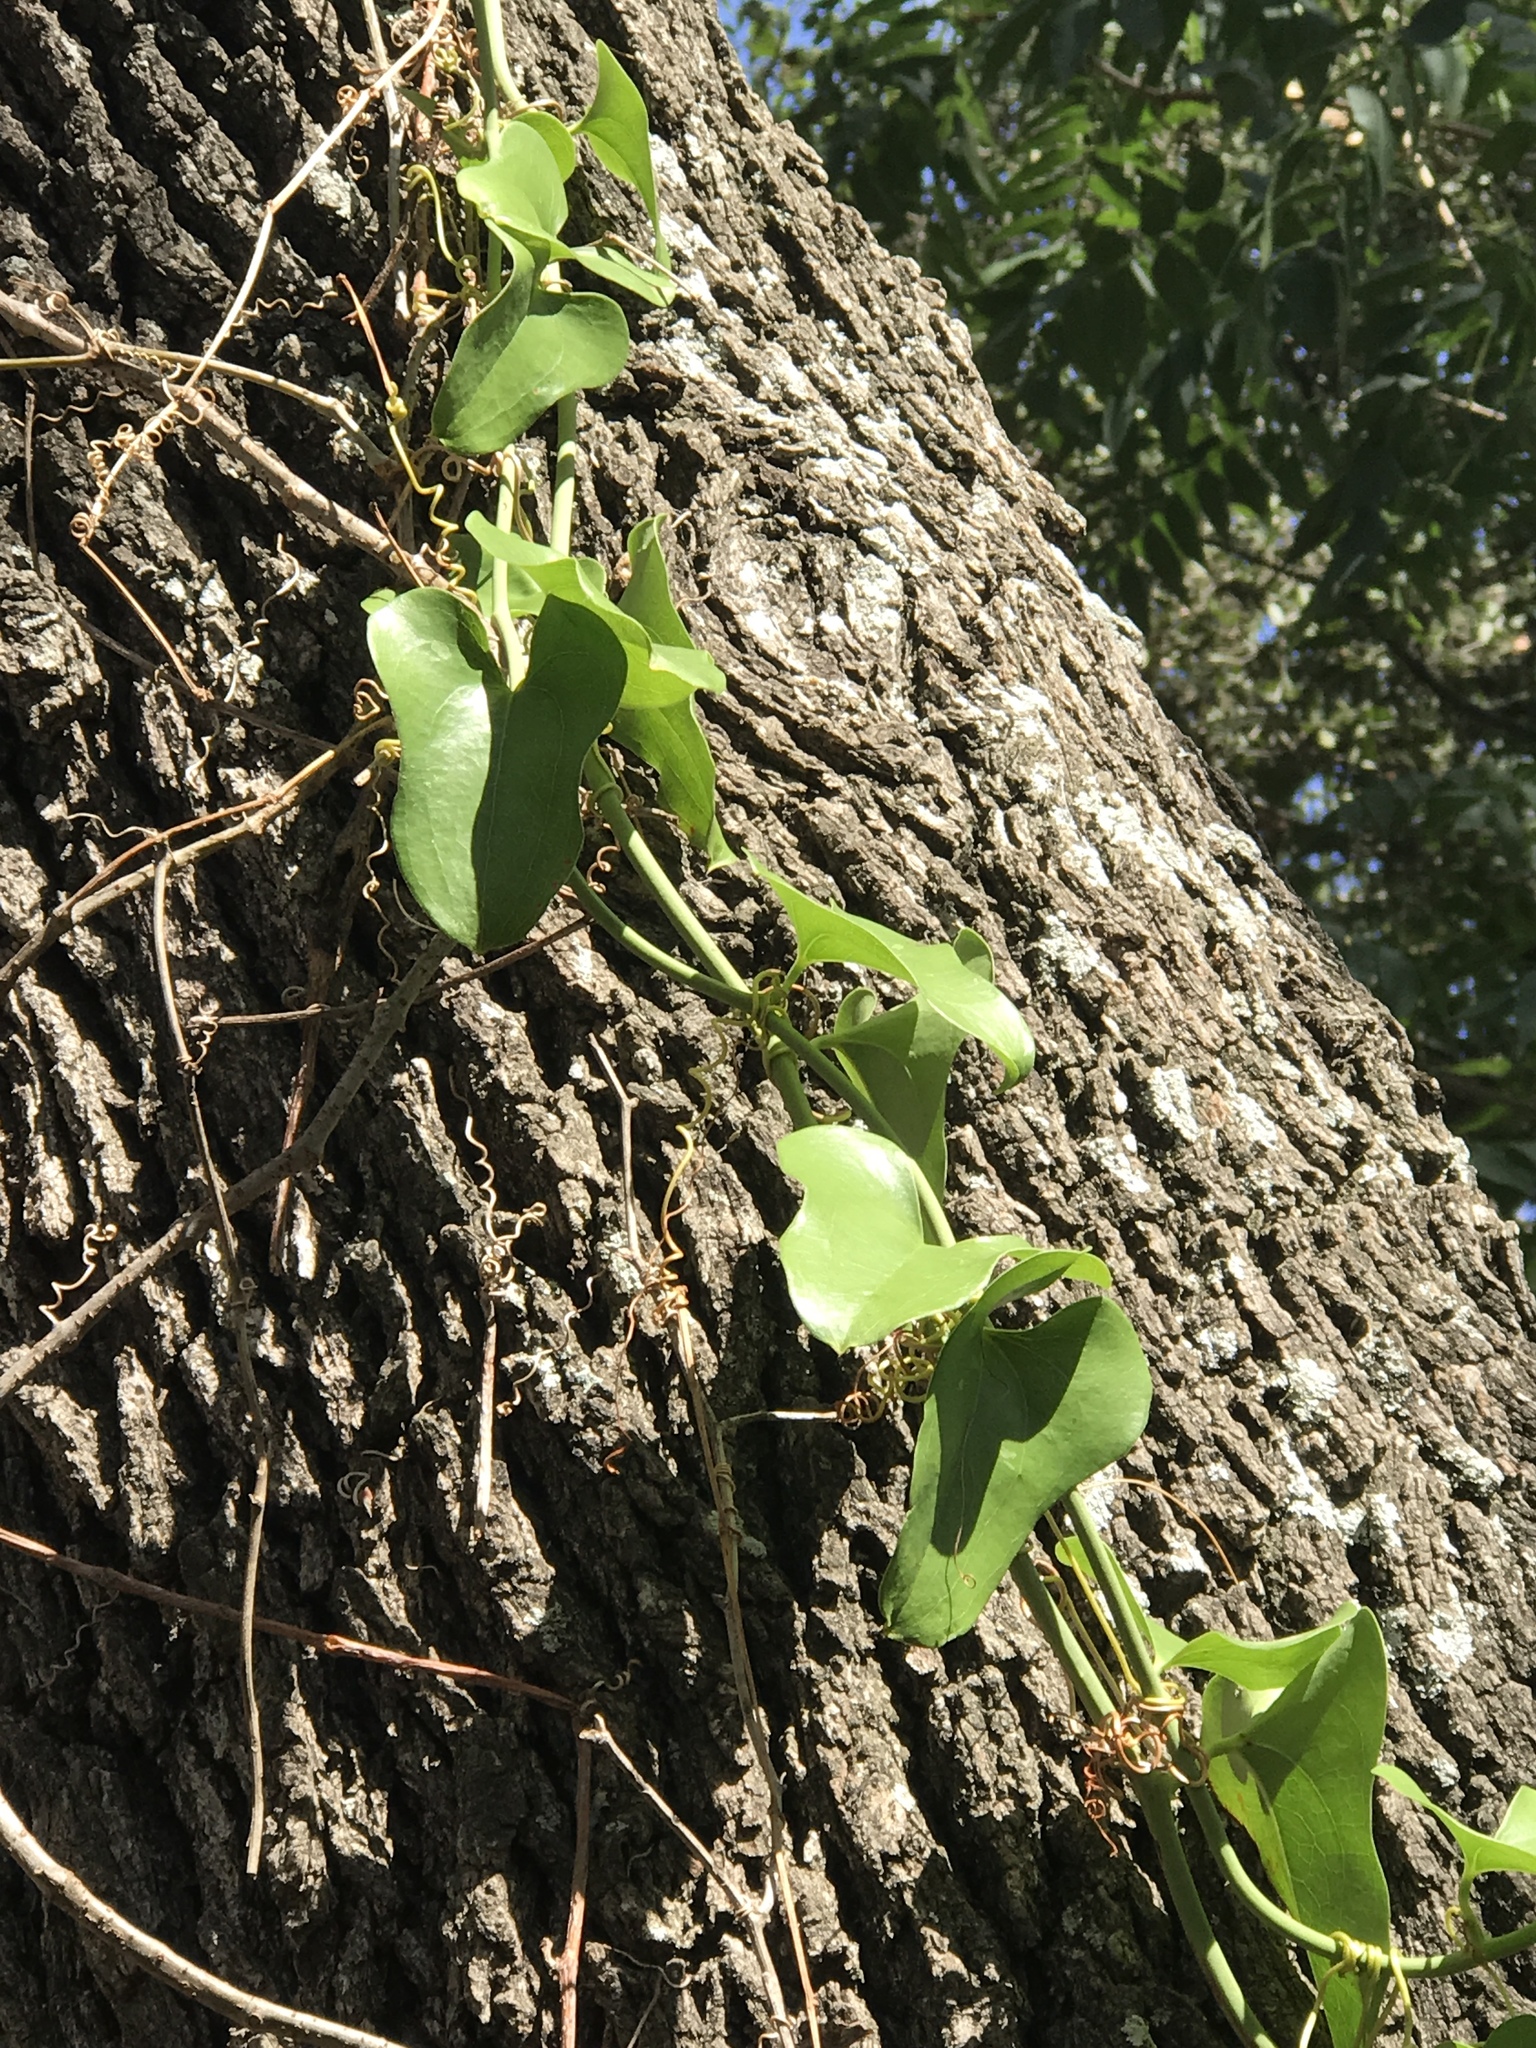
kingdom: Plantae
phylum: Tracheophyta
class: Liliopsida
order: Liliales
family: Smilacaceae
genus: Smilax
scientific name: Smilax bona-nox
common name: Catbrier
